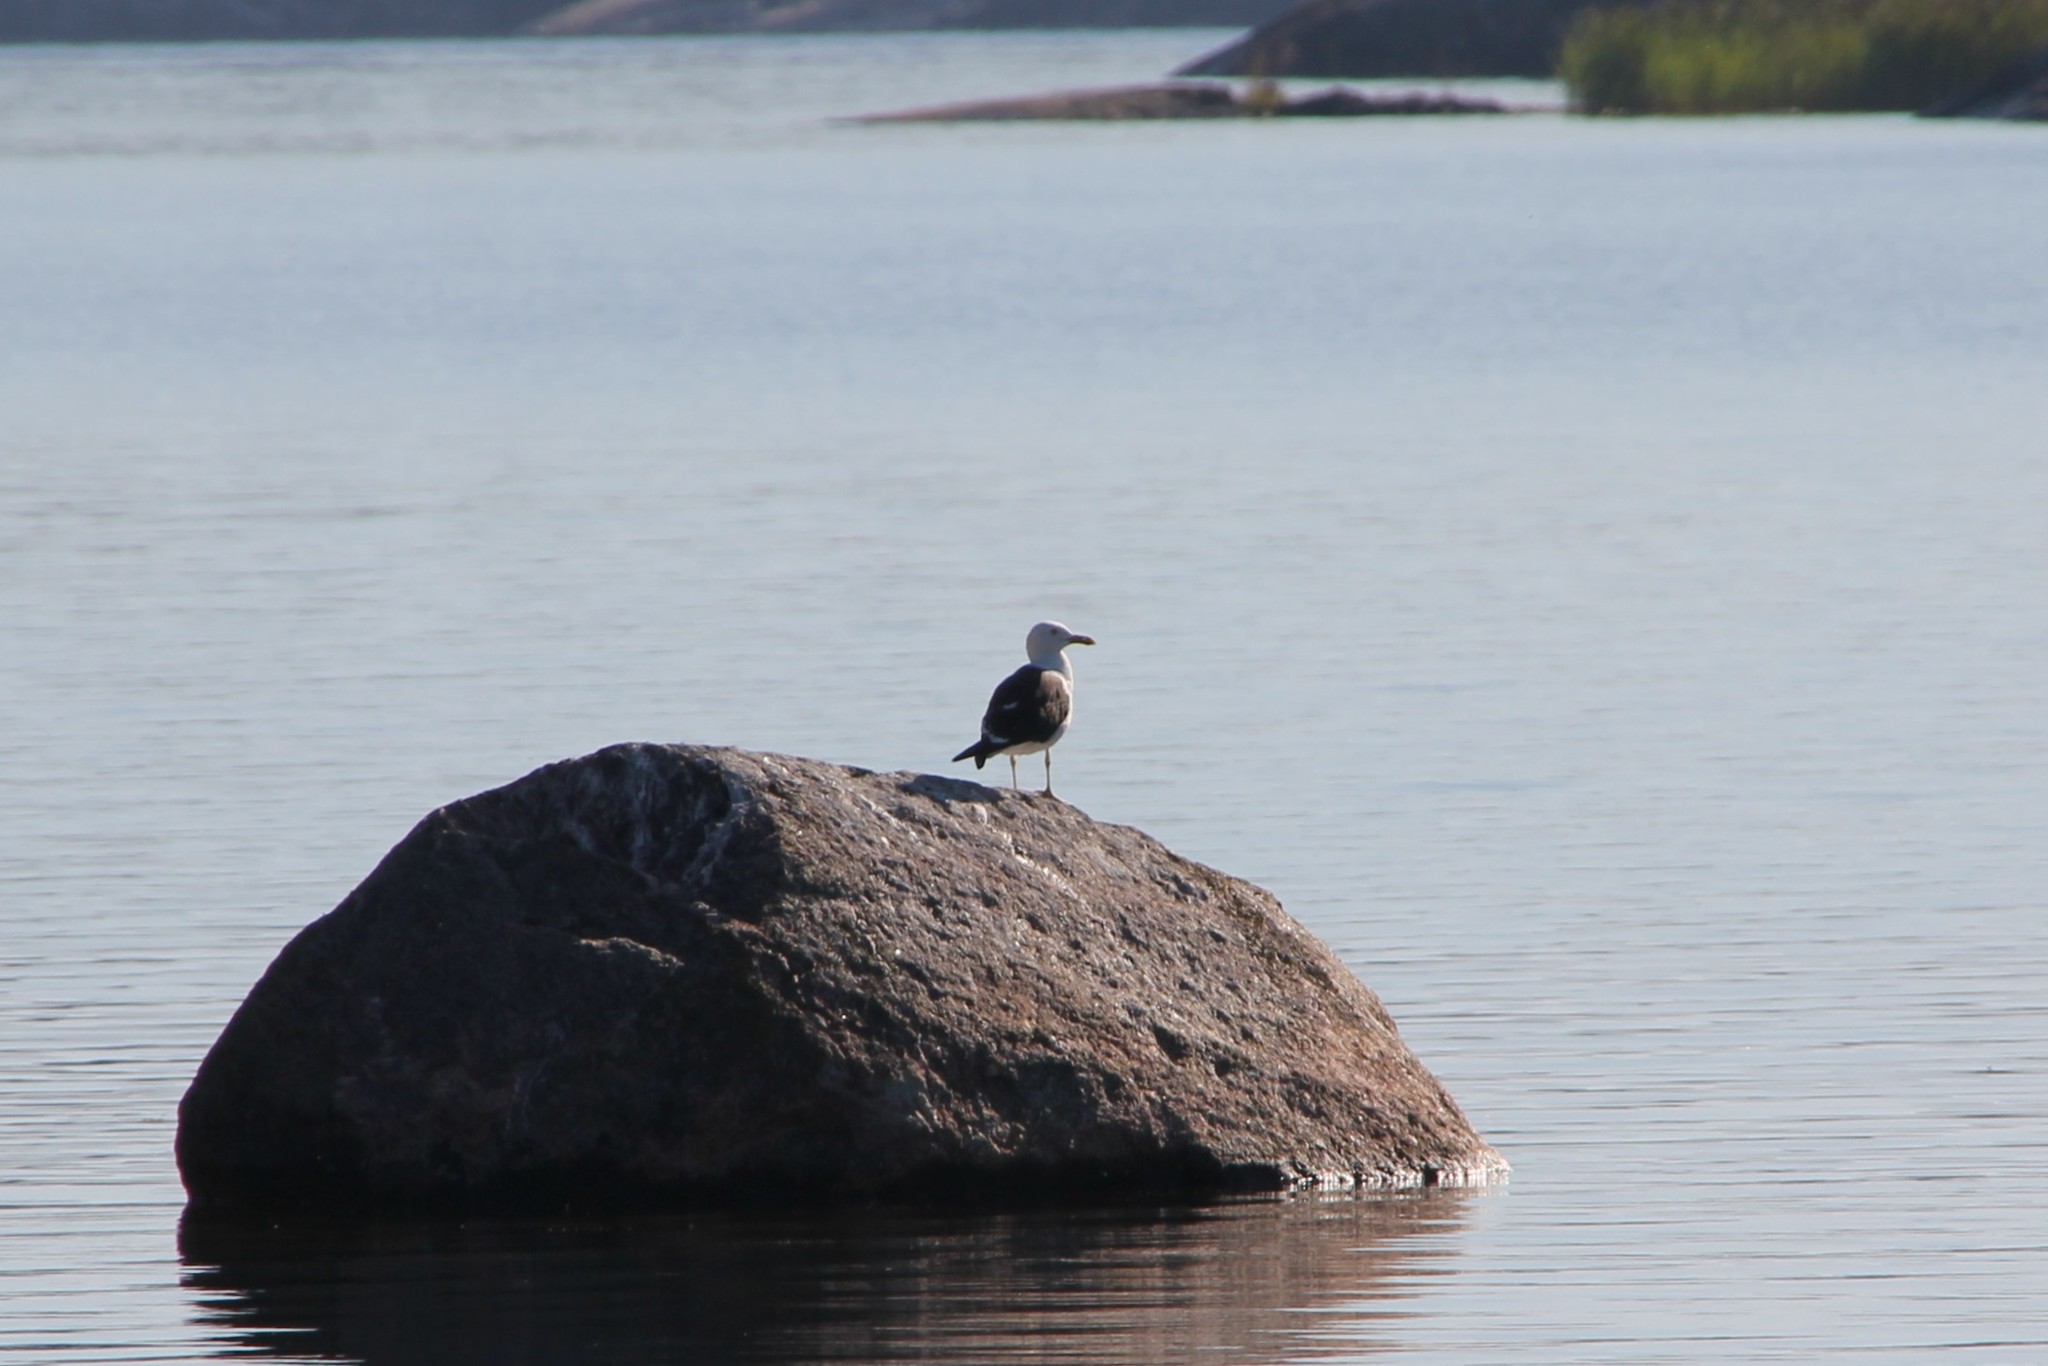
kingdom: Animalia
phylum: Chordata
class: Aves
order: Charadriiformes
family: Laridae
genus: Larus
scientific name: Larus fuscus
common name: Lesser black-backed gull
